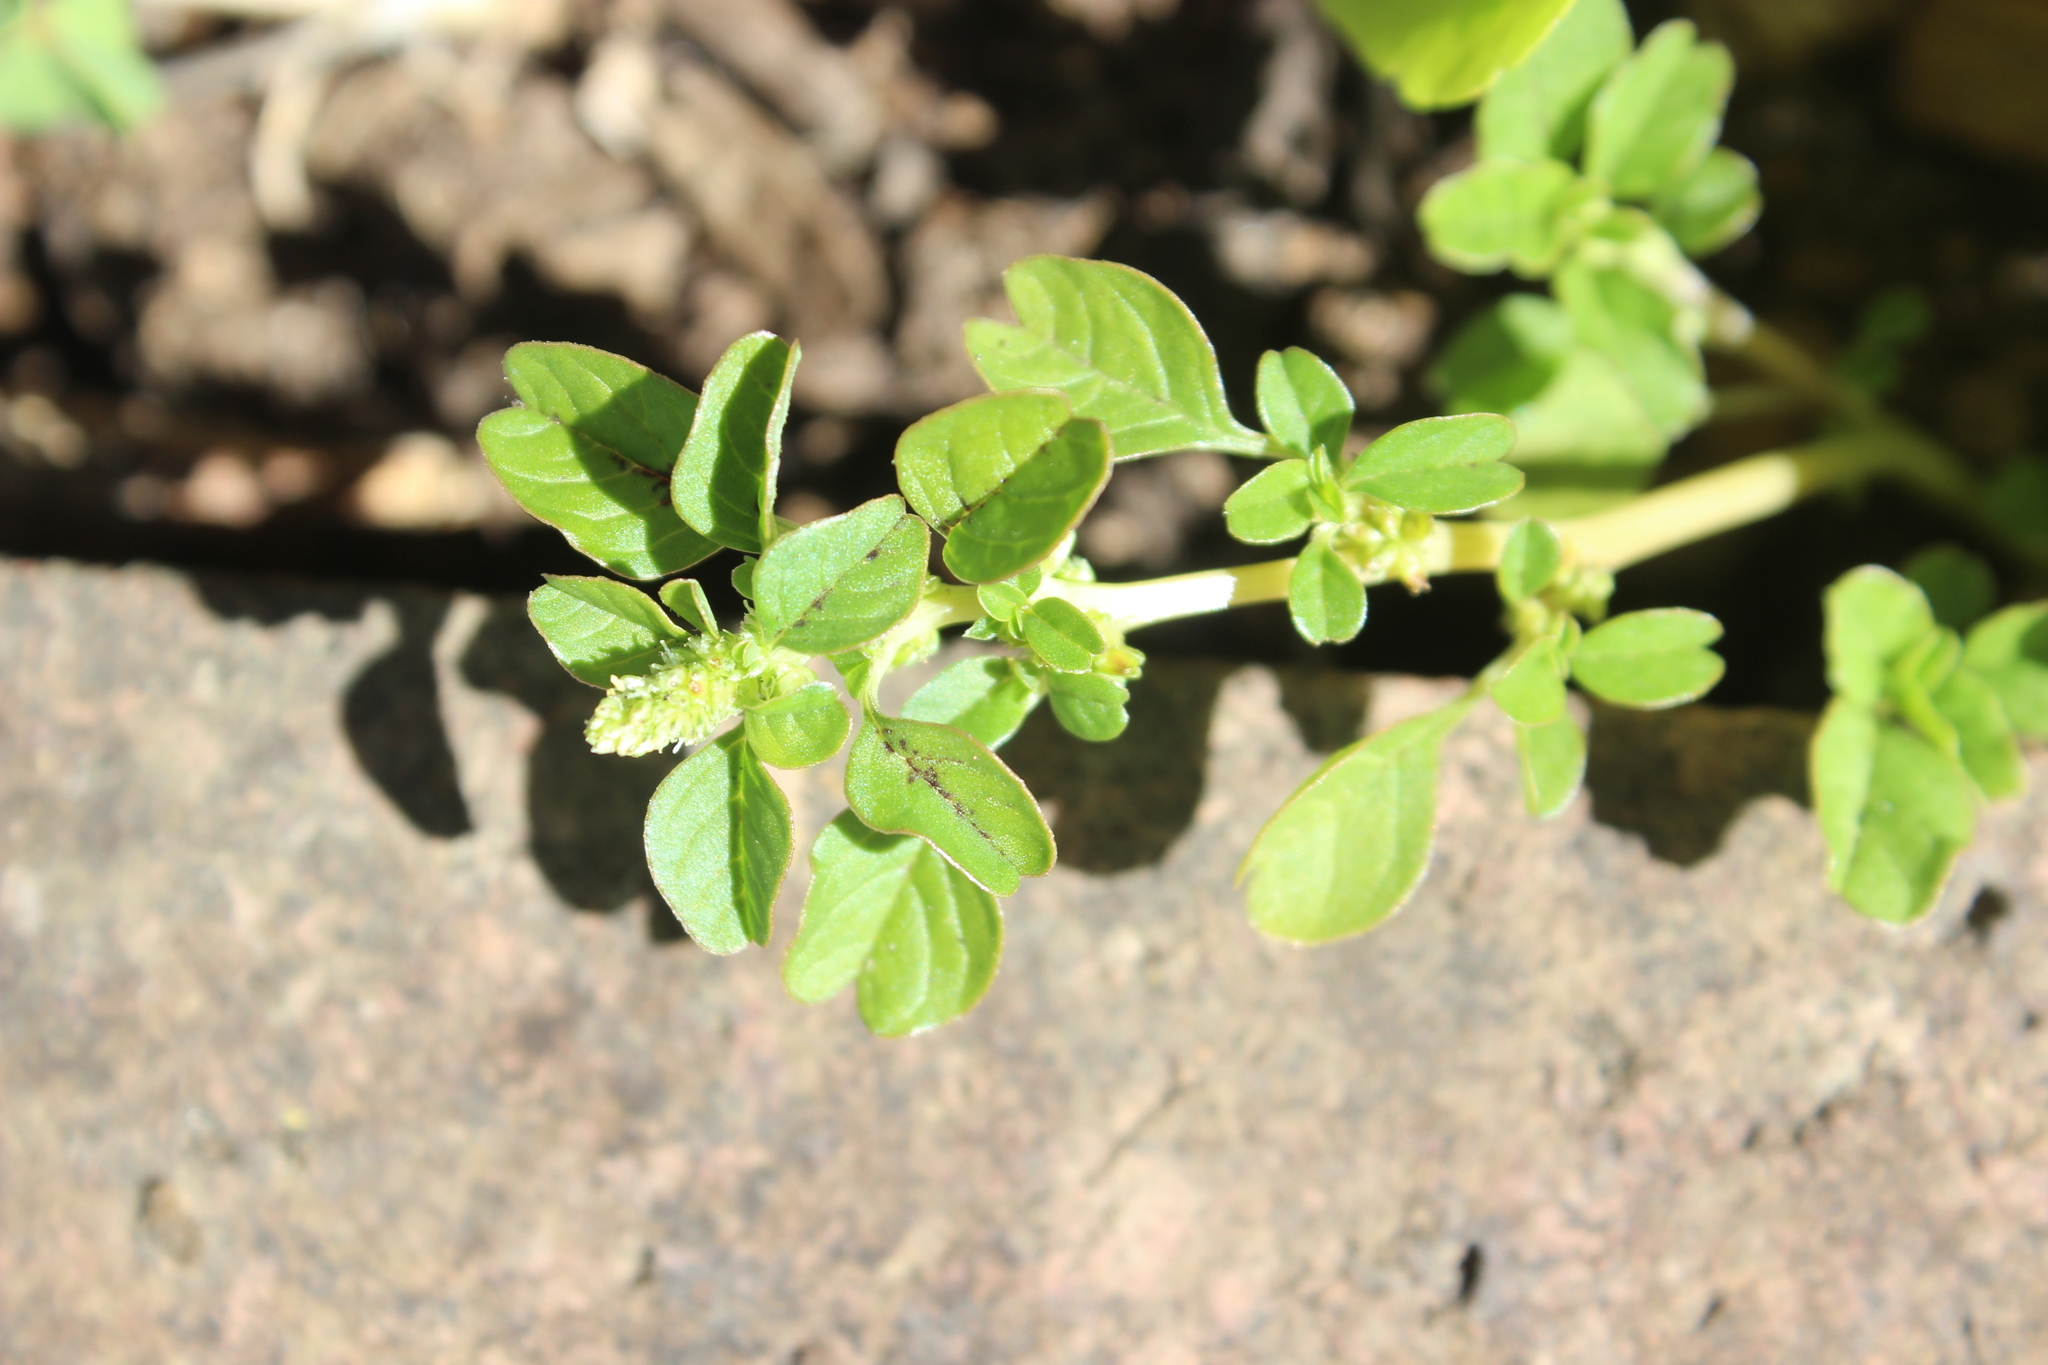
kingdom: Plantae
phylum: Tracheophyta
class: Magnoliopsida
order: Caryophyllales
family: Amaranthaceae
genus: Amaranthus
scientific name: Amaranthus blitum
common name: Purple amaranth
